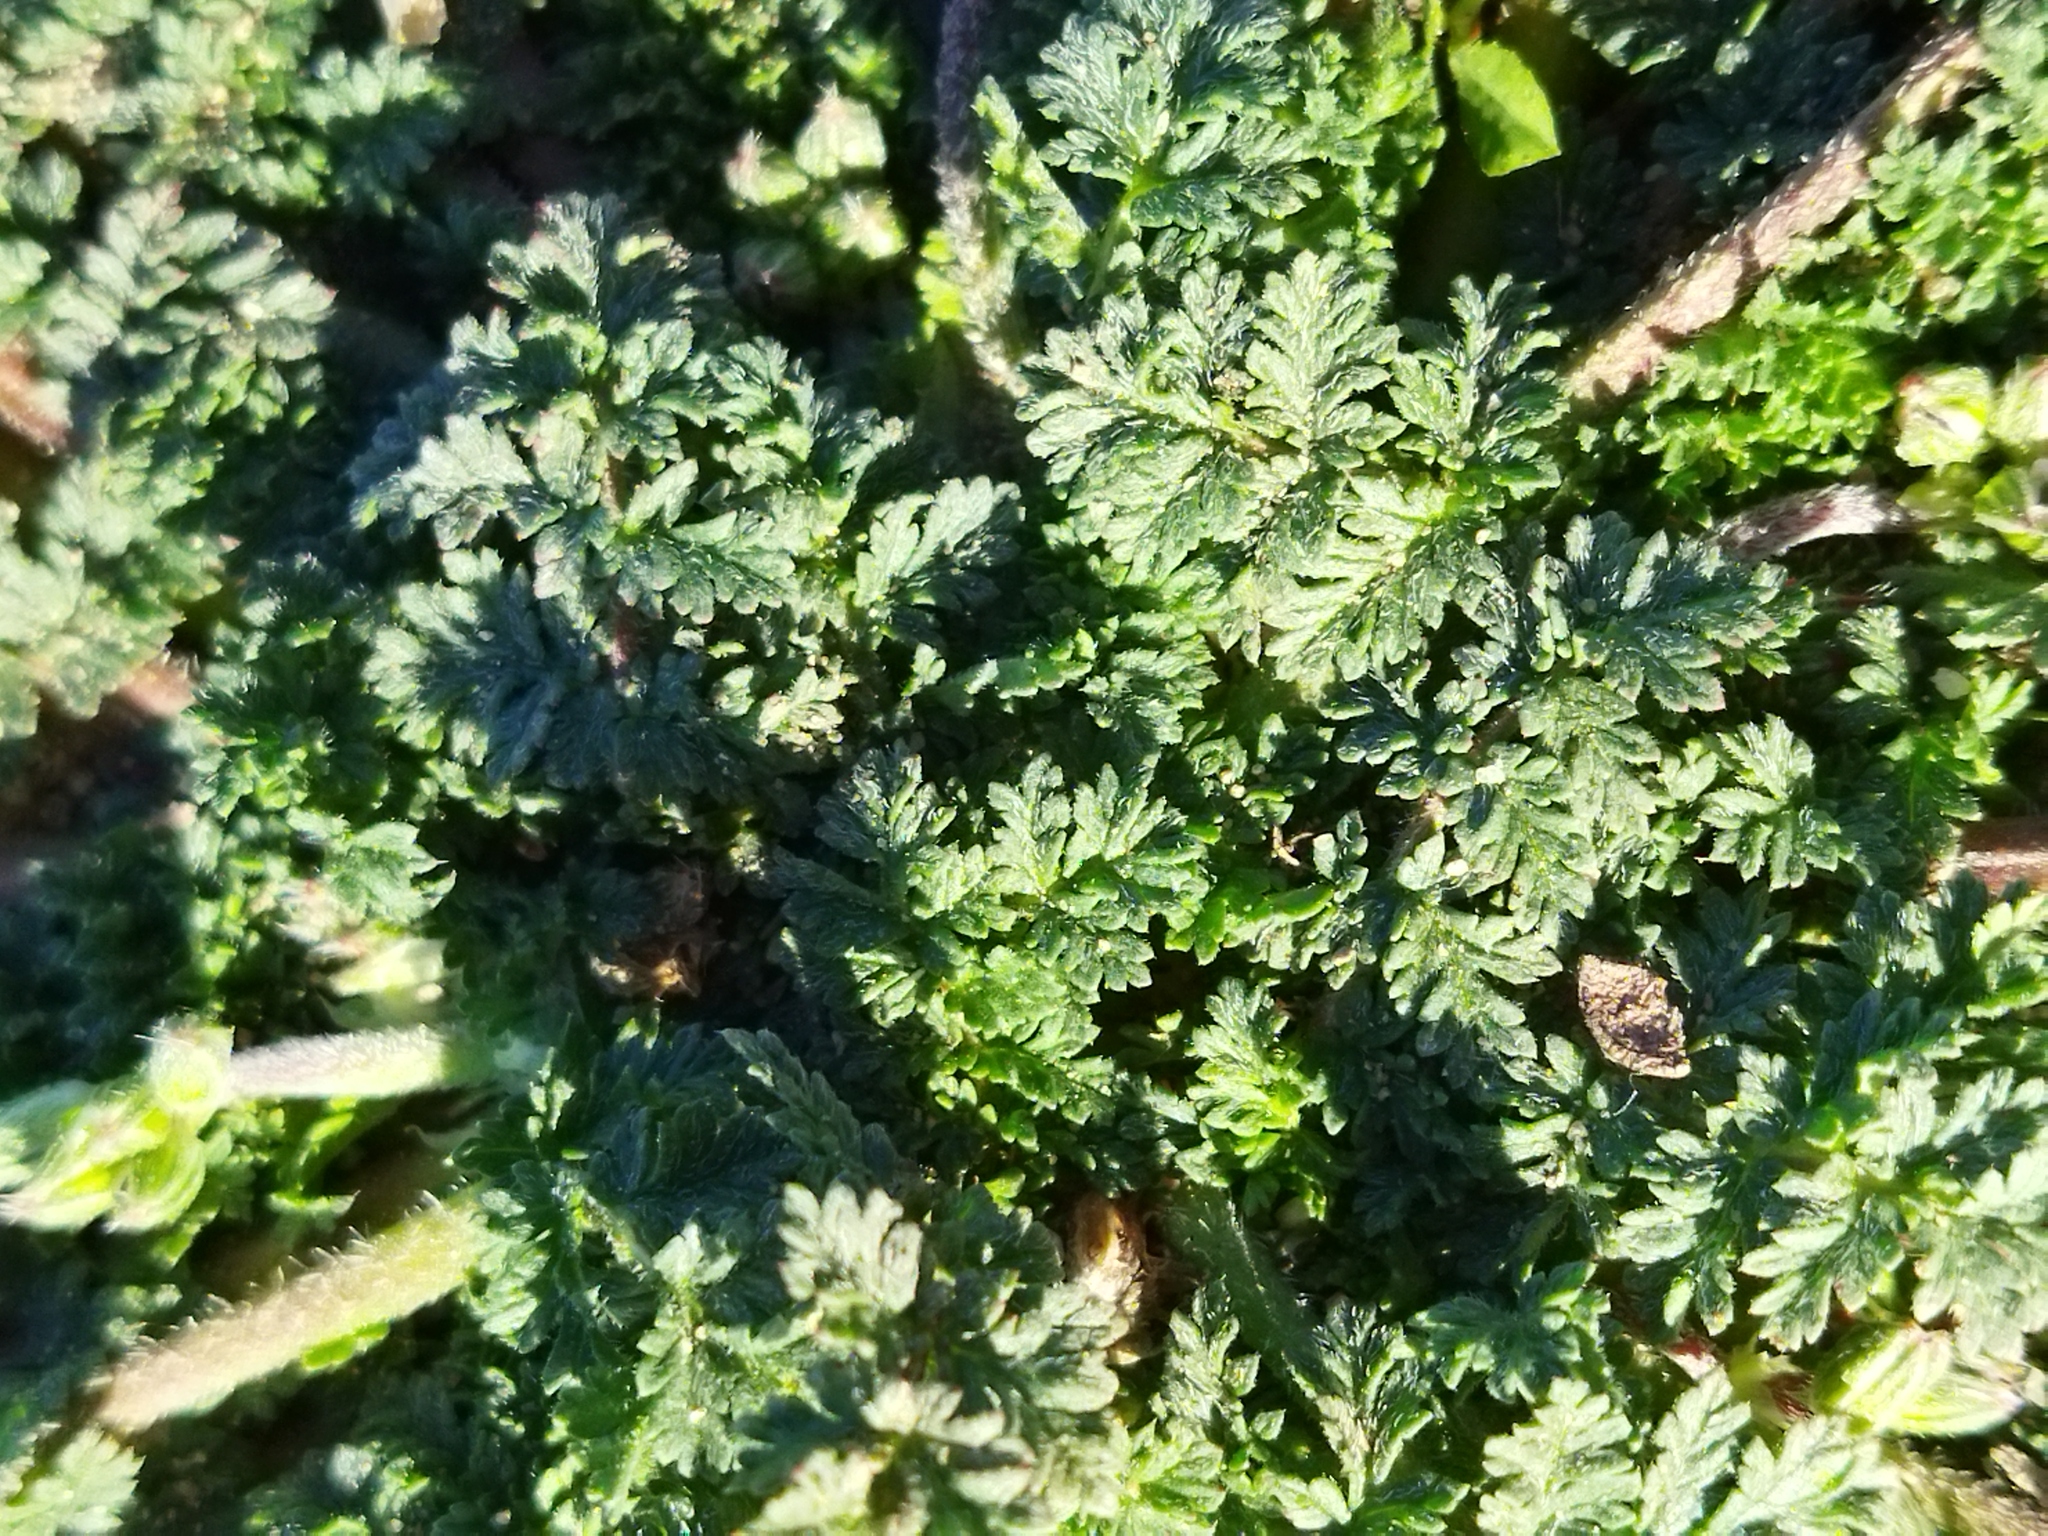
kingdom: Plantae
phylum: Tracheophyta
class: Magnoliopsida
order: Geraniales
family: Geraniaceae
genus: Erodium
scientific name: Erodium cicutarium
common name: Common stork's-bill
